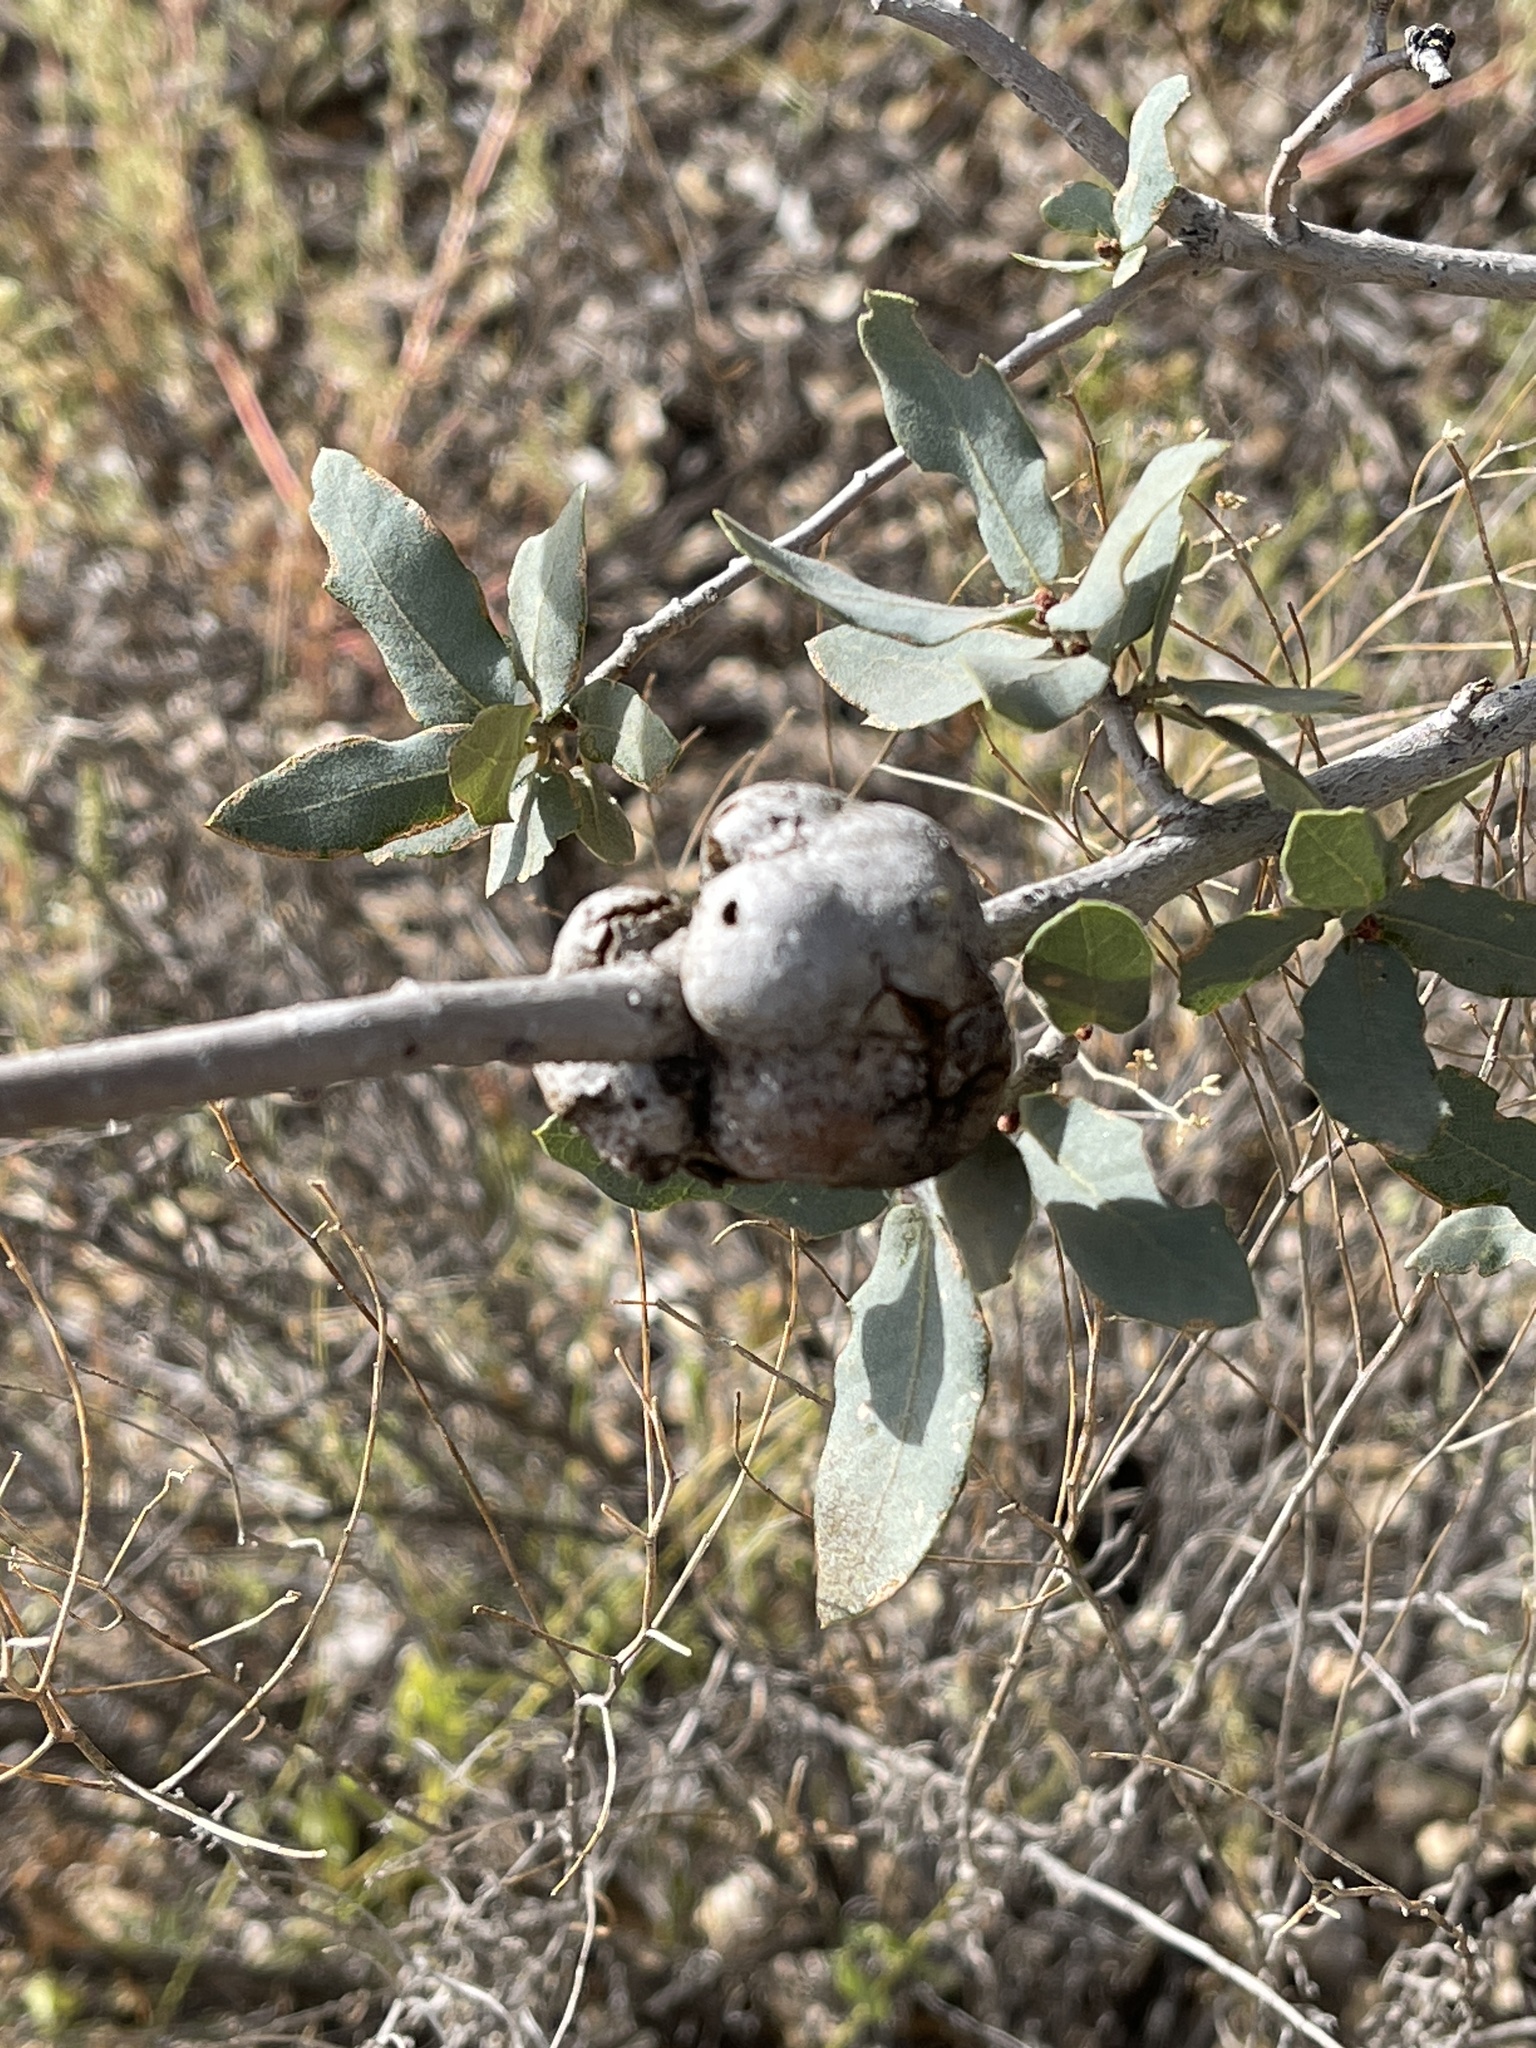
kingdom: Animalia
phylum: Arthropoda
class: Insecta
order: Hymenoptera
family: Cynipidae
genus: Andricus
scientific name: Andricus
